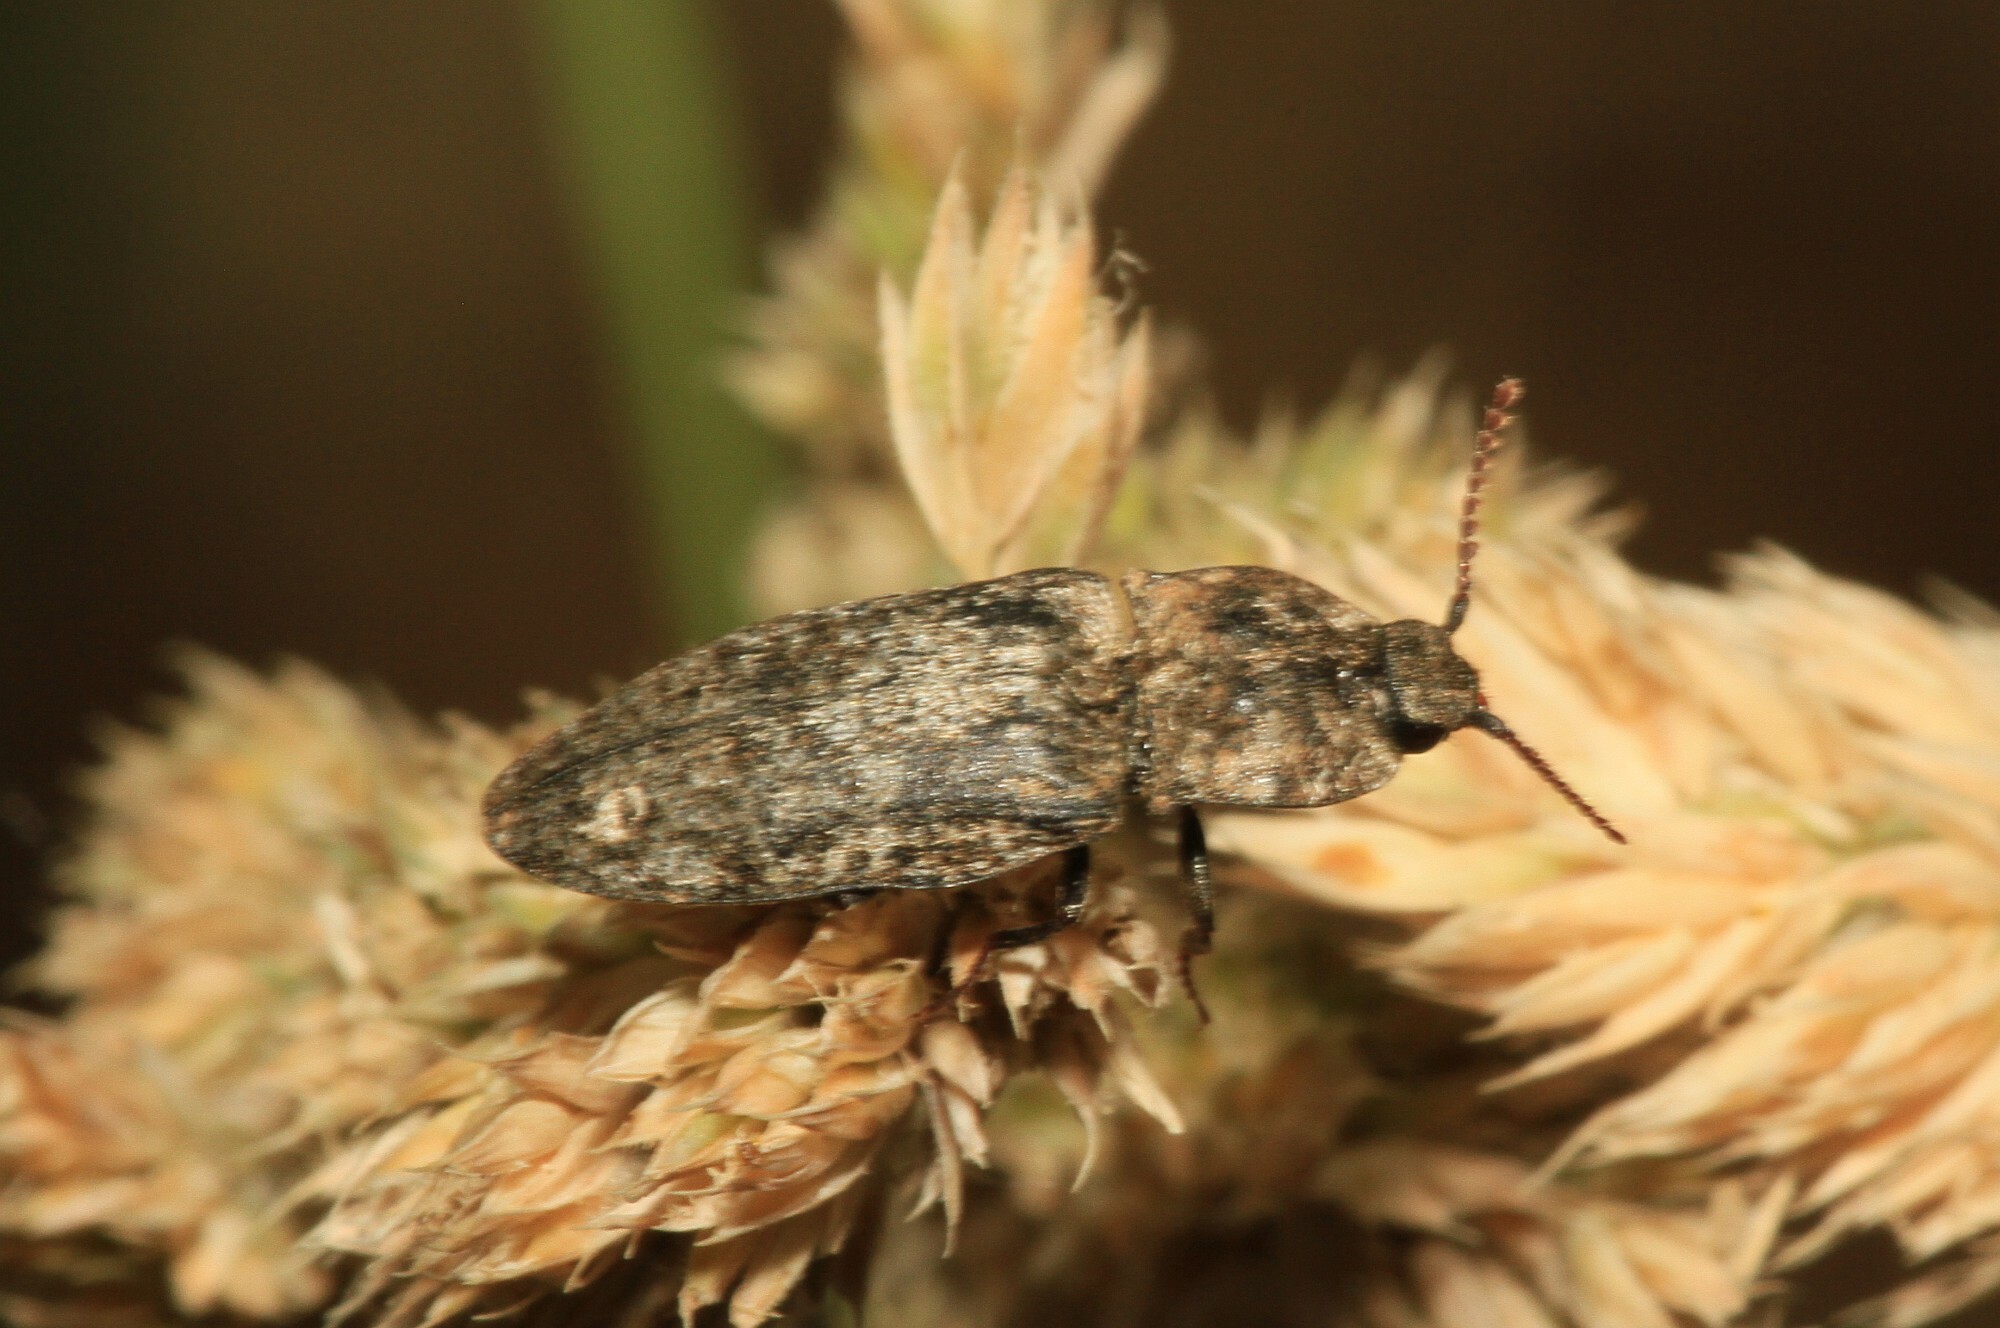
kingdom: Animalia
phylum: Arthropoda
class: Insecta
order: Coleoptera
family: Elateridae
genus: Agrypnus
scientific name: Agrypnus murinus
